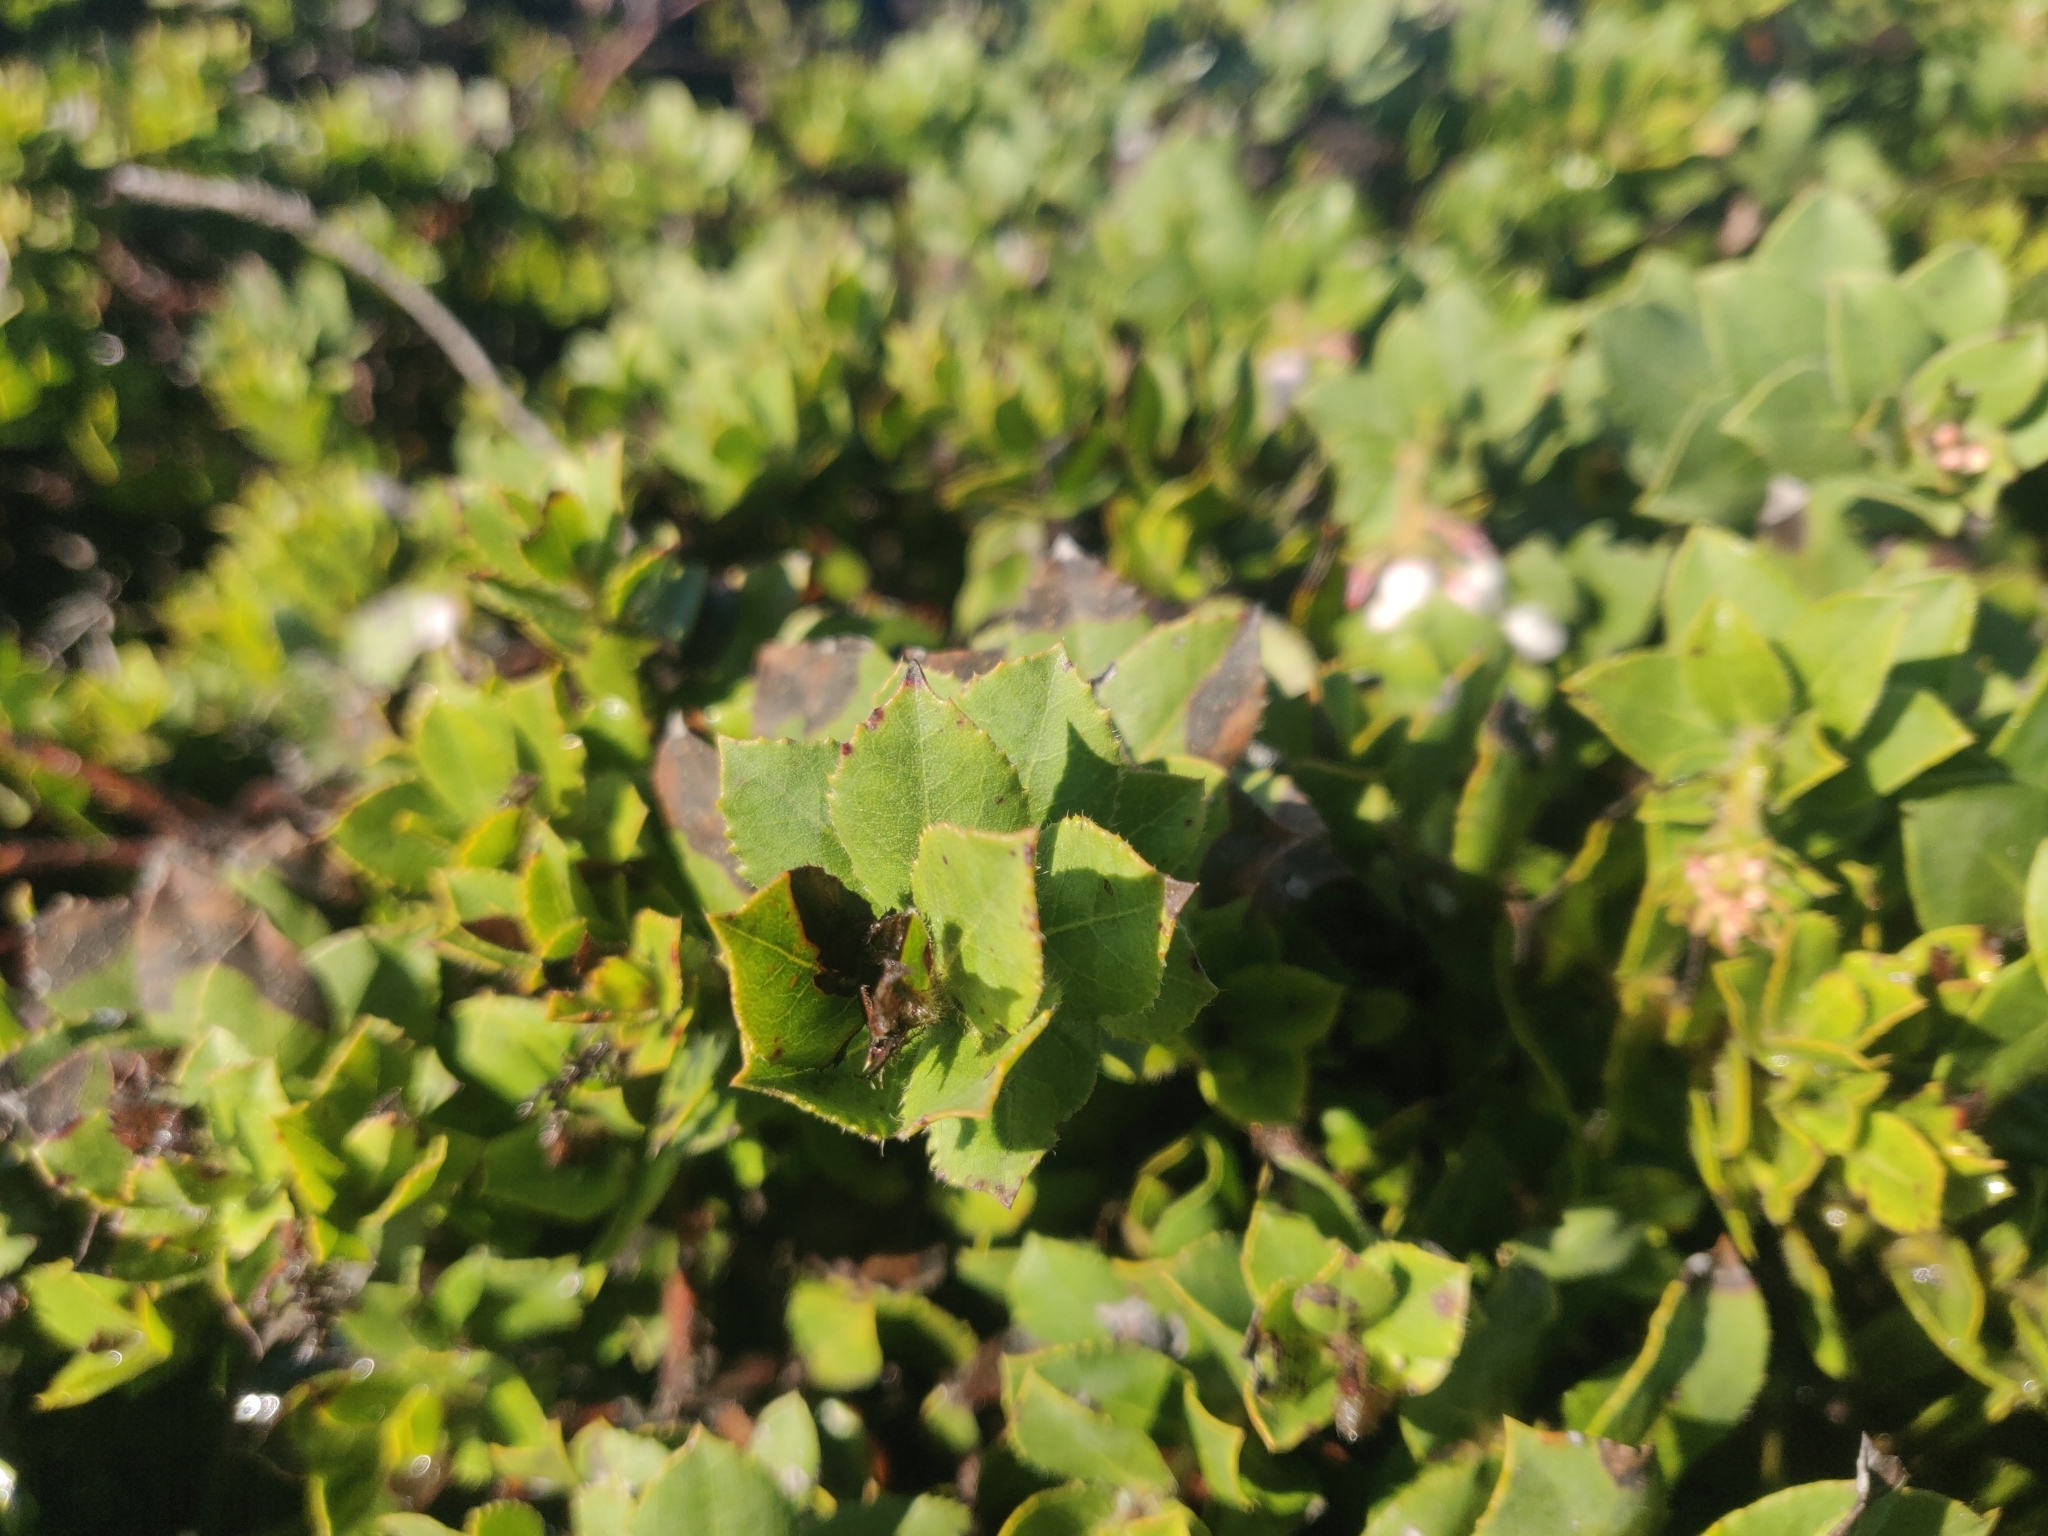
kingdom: Plantae
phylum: Tracheophyta
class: Magnoliopsida
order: Ericales
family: Ericaceae
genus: Arctostaphylos
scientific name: Arctostaphylos imbricata
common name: San bruno mountain manzanita
